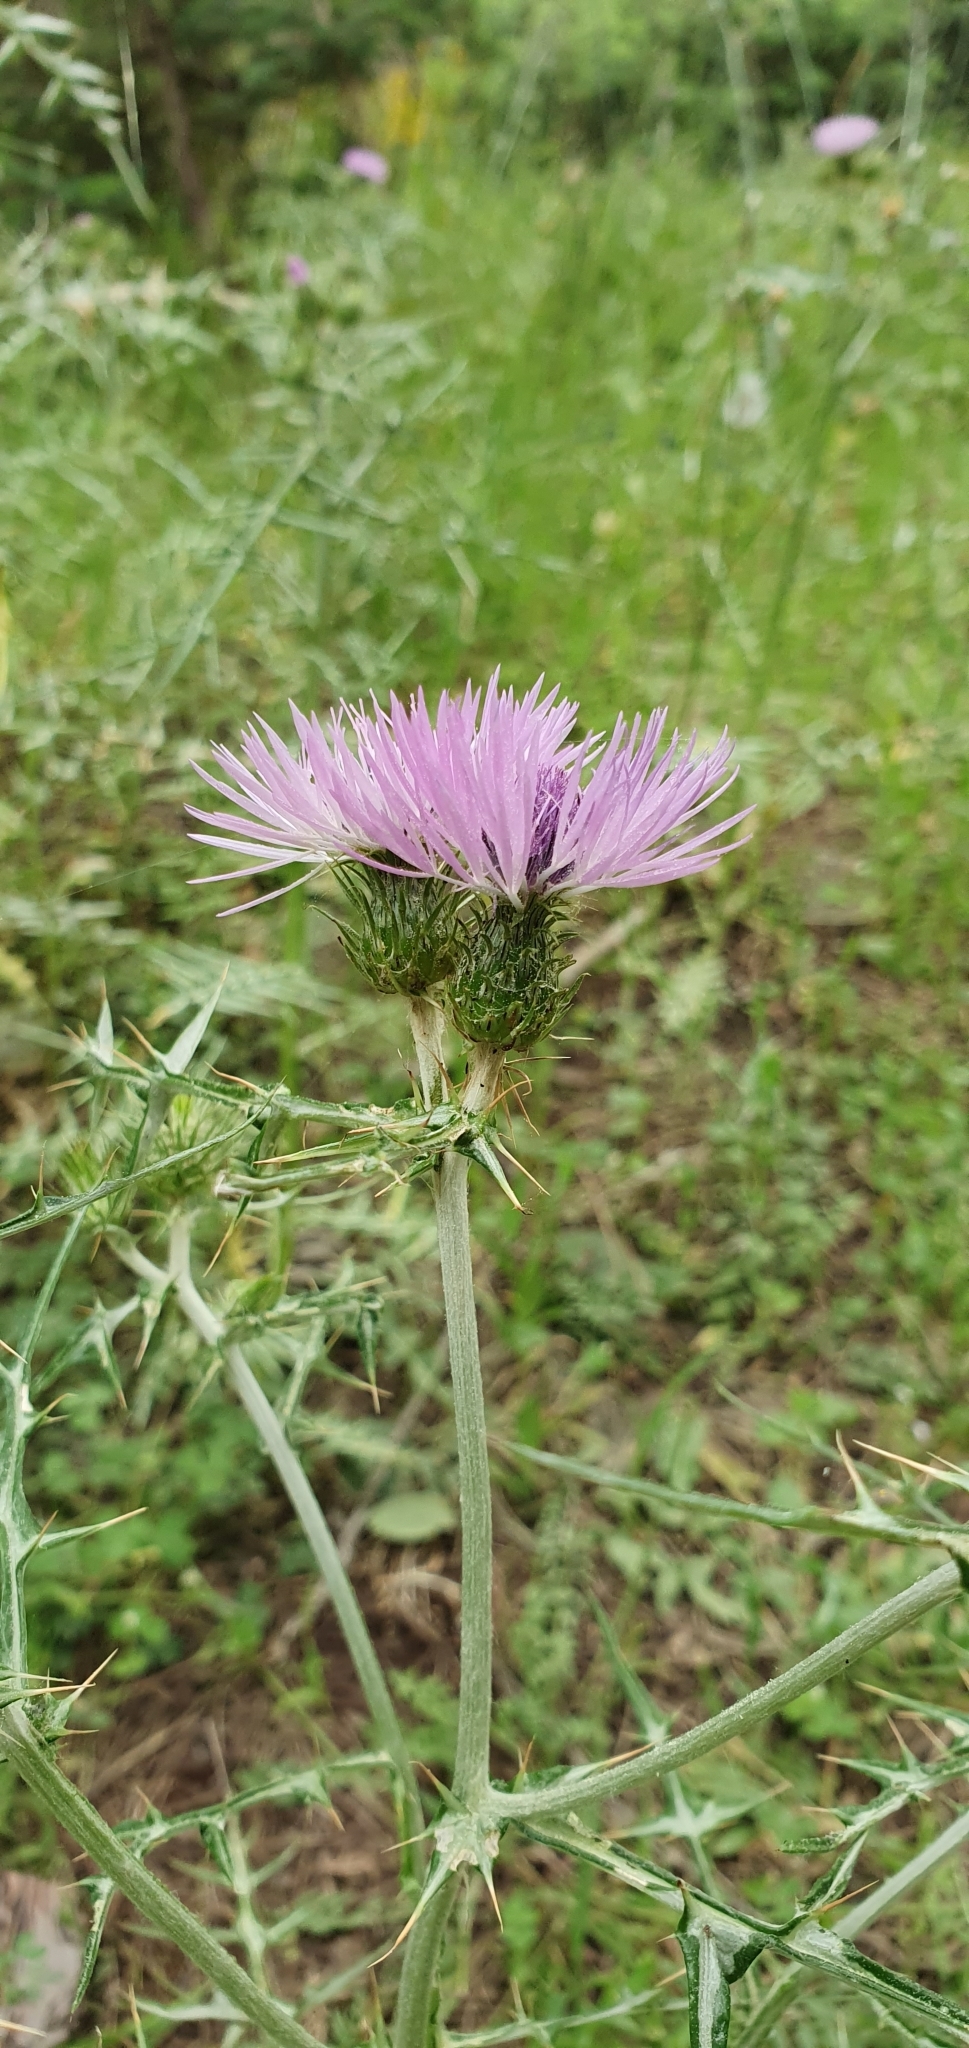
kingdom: Plantae
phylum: Tracheophyta
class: Magnoliopsida
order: Asterales
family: Asteraceae
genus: Galactites
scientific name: Galactites tomentosa
